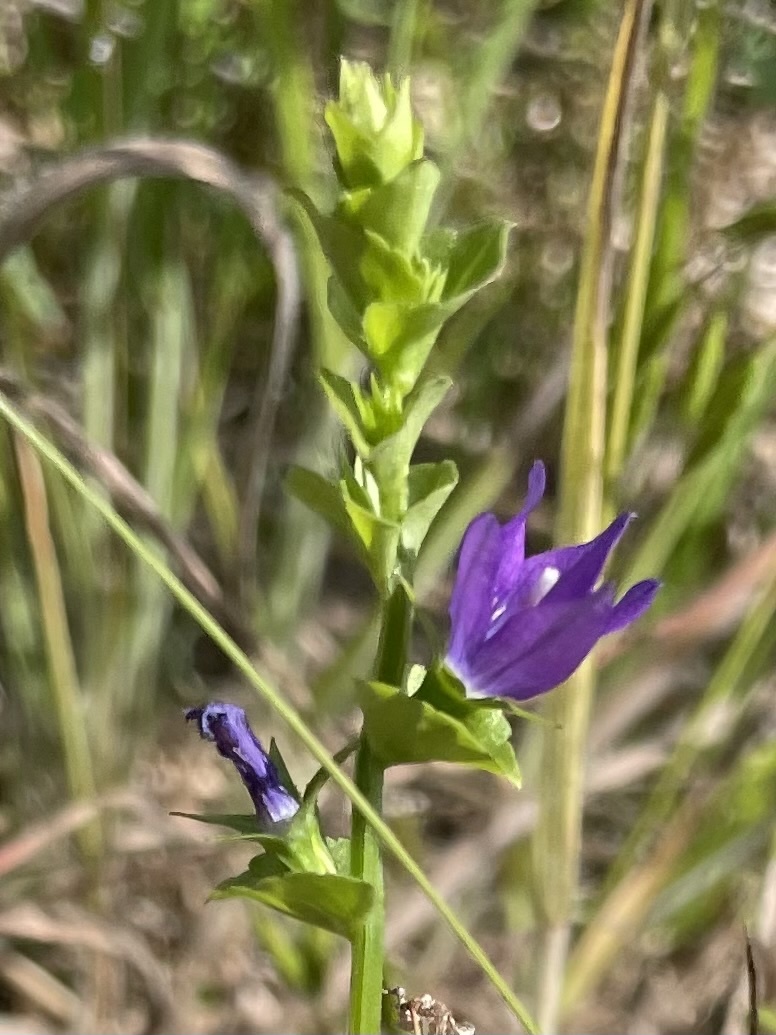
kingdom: Plantae
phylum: Tracheophyta
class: Magnoliopsida
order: Asterales
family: Campanulaceae
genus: Triodanis
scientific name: Triodanis perfoliata
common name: Clasping venus' looking-glass
